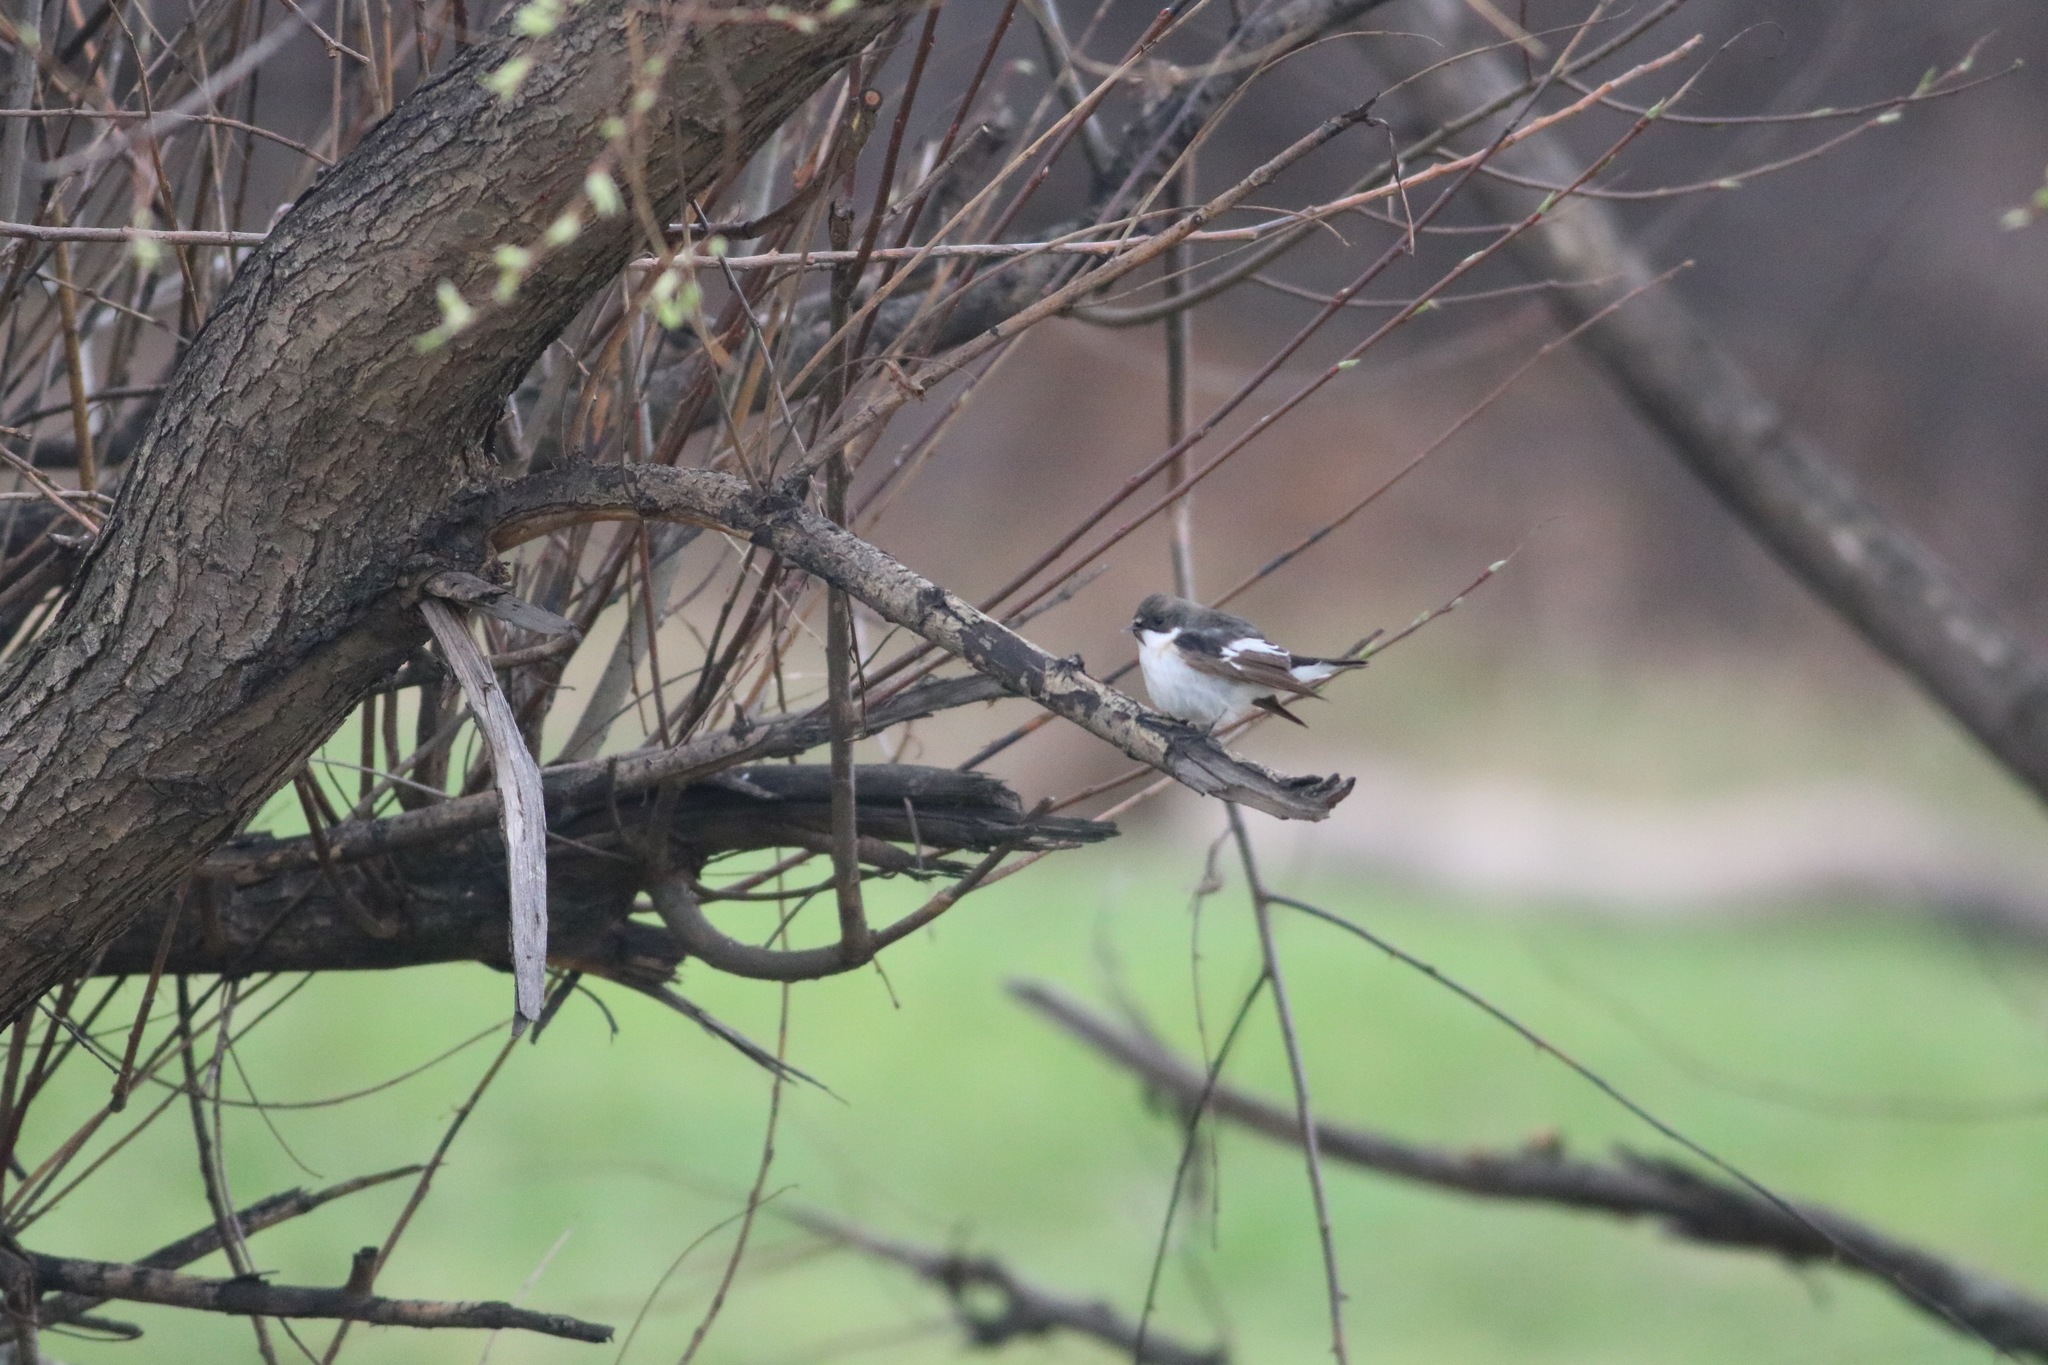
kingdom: Animalia
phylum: Chordata
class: Aves
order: Passeriformes
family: Muscicapidae
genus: Ficedula
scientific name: Ficedula hypoleuca
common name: European pied flycatcher
